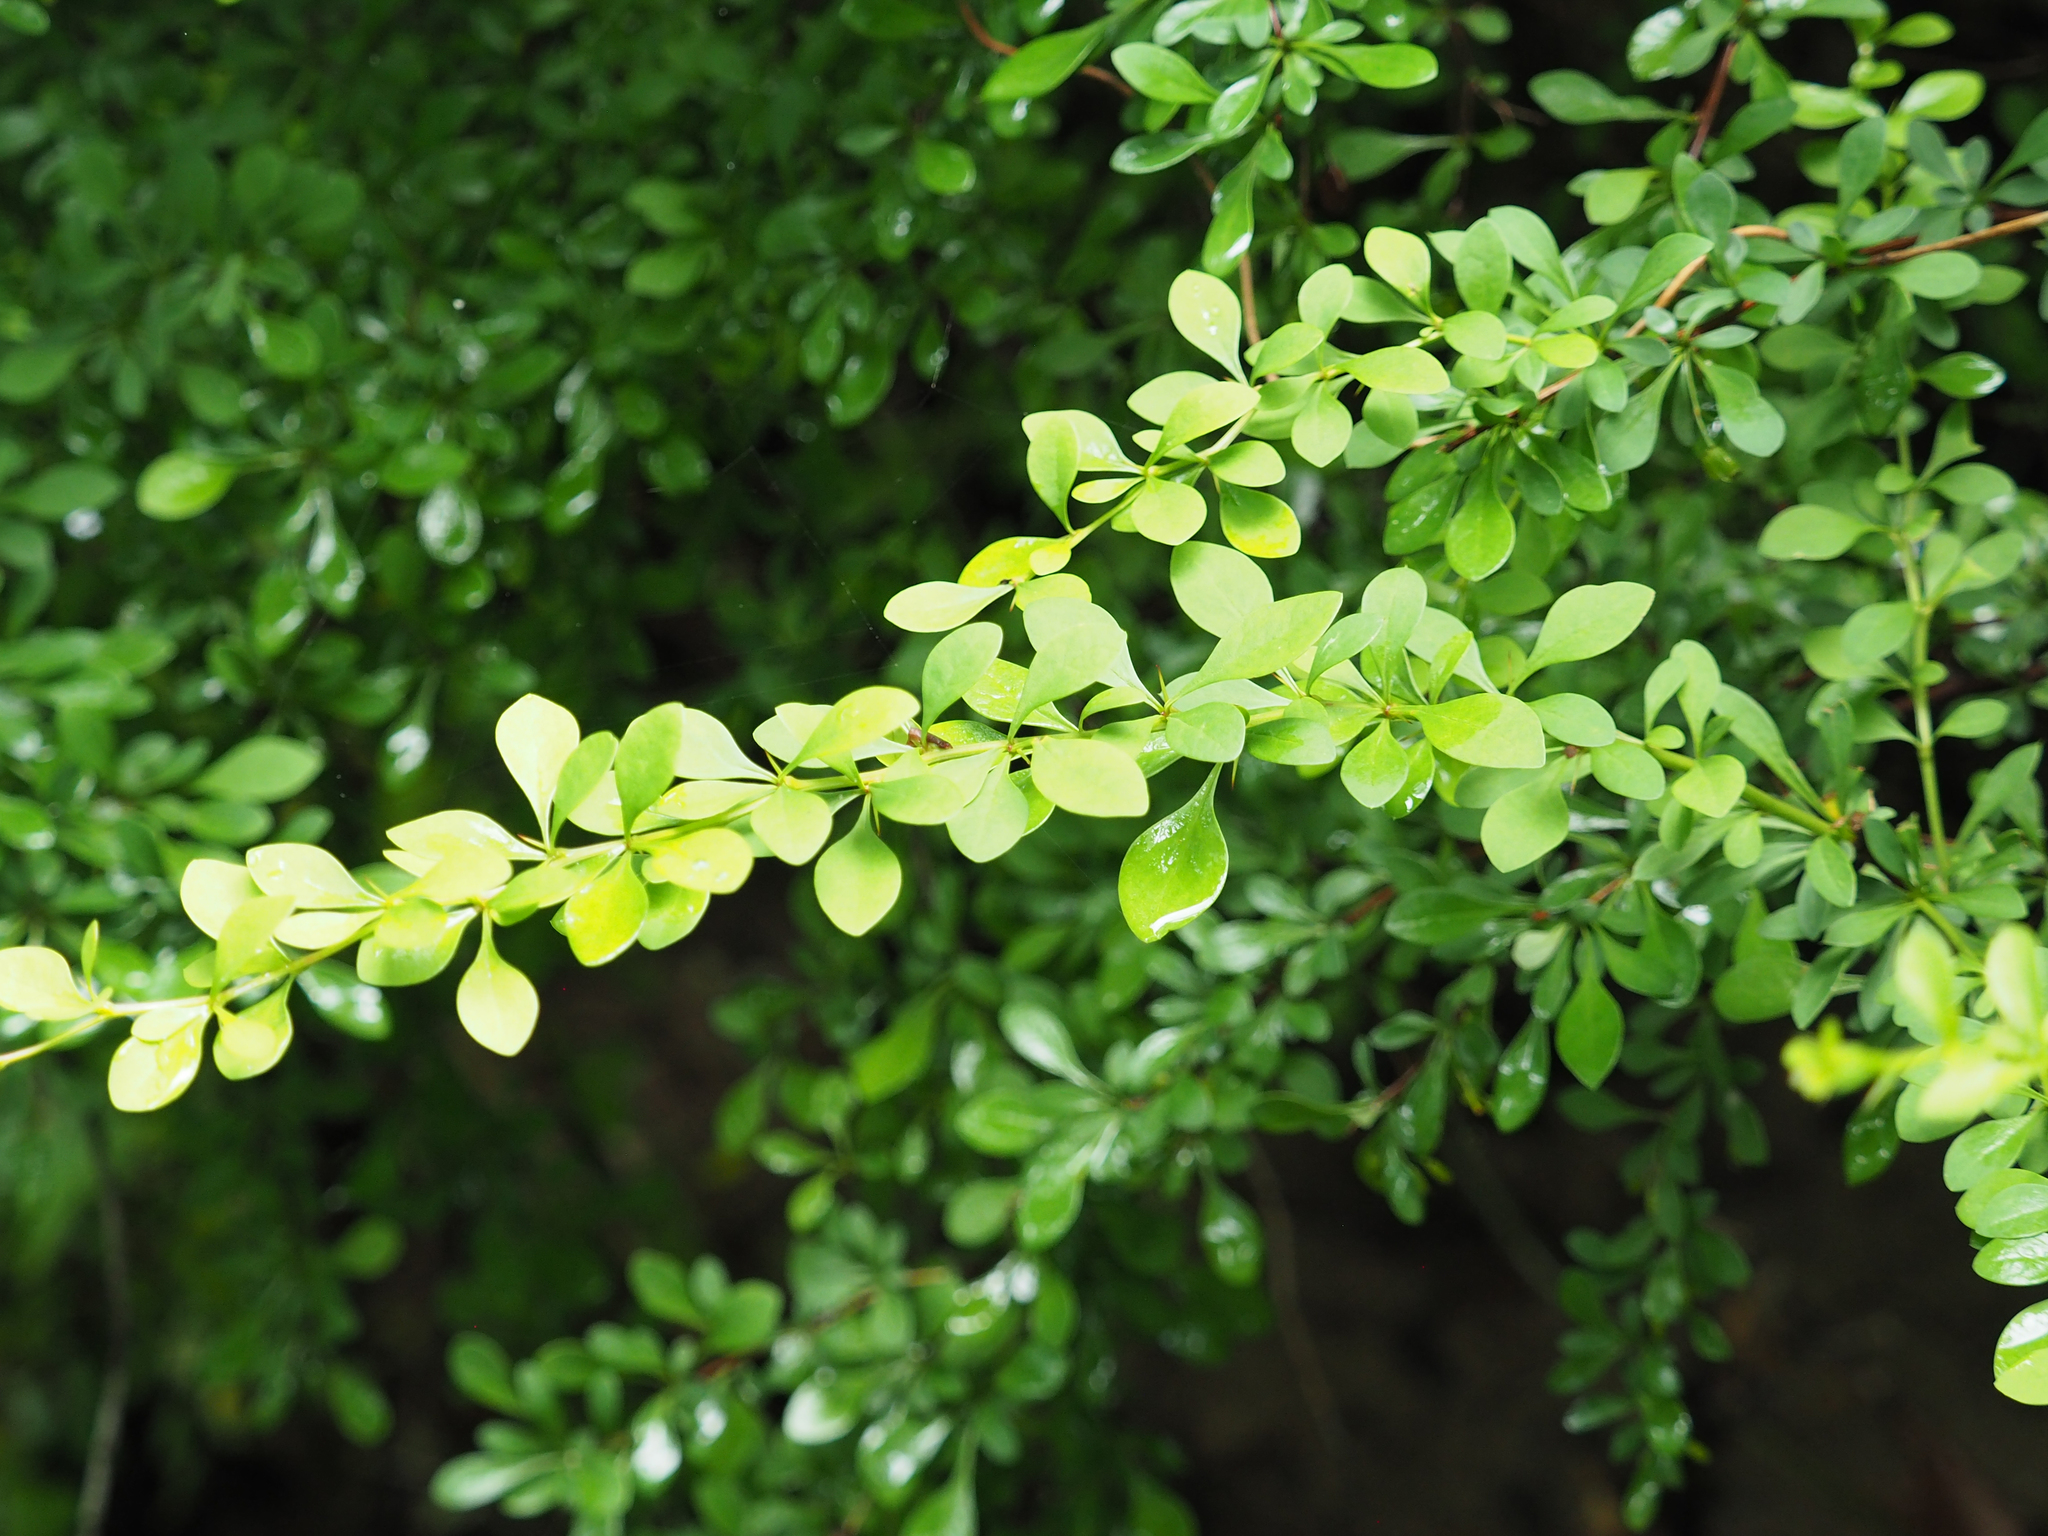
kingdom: Plantae
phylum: Tracheophyta
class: Magnoliopsida
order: Ranunculales
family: Berberidaceae
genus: Berberis
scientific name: Berberis thunbergii
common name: Japanese barberry
